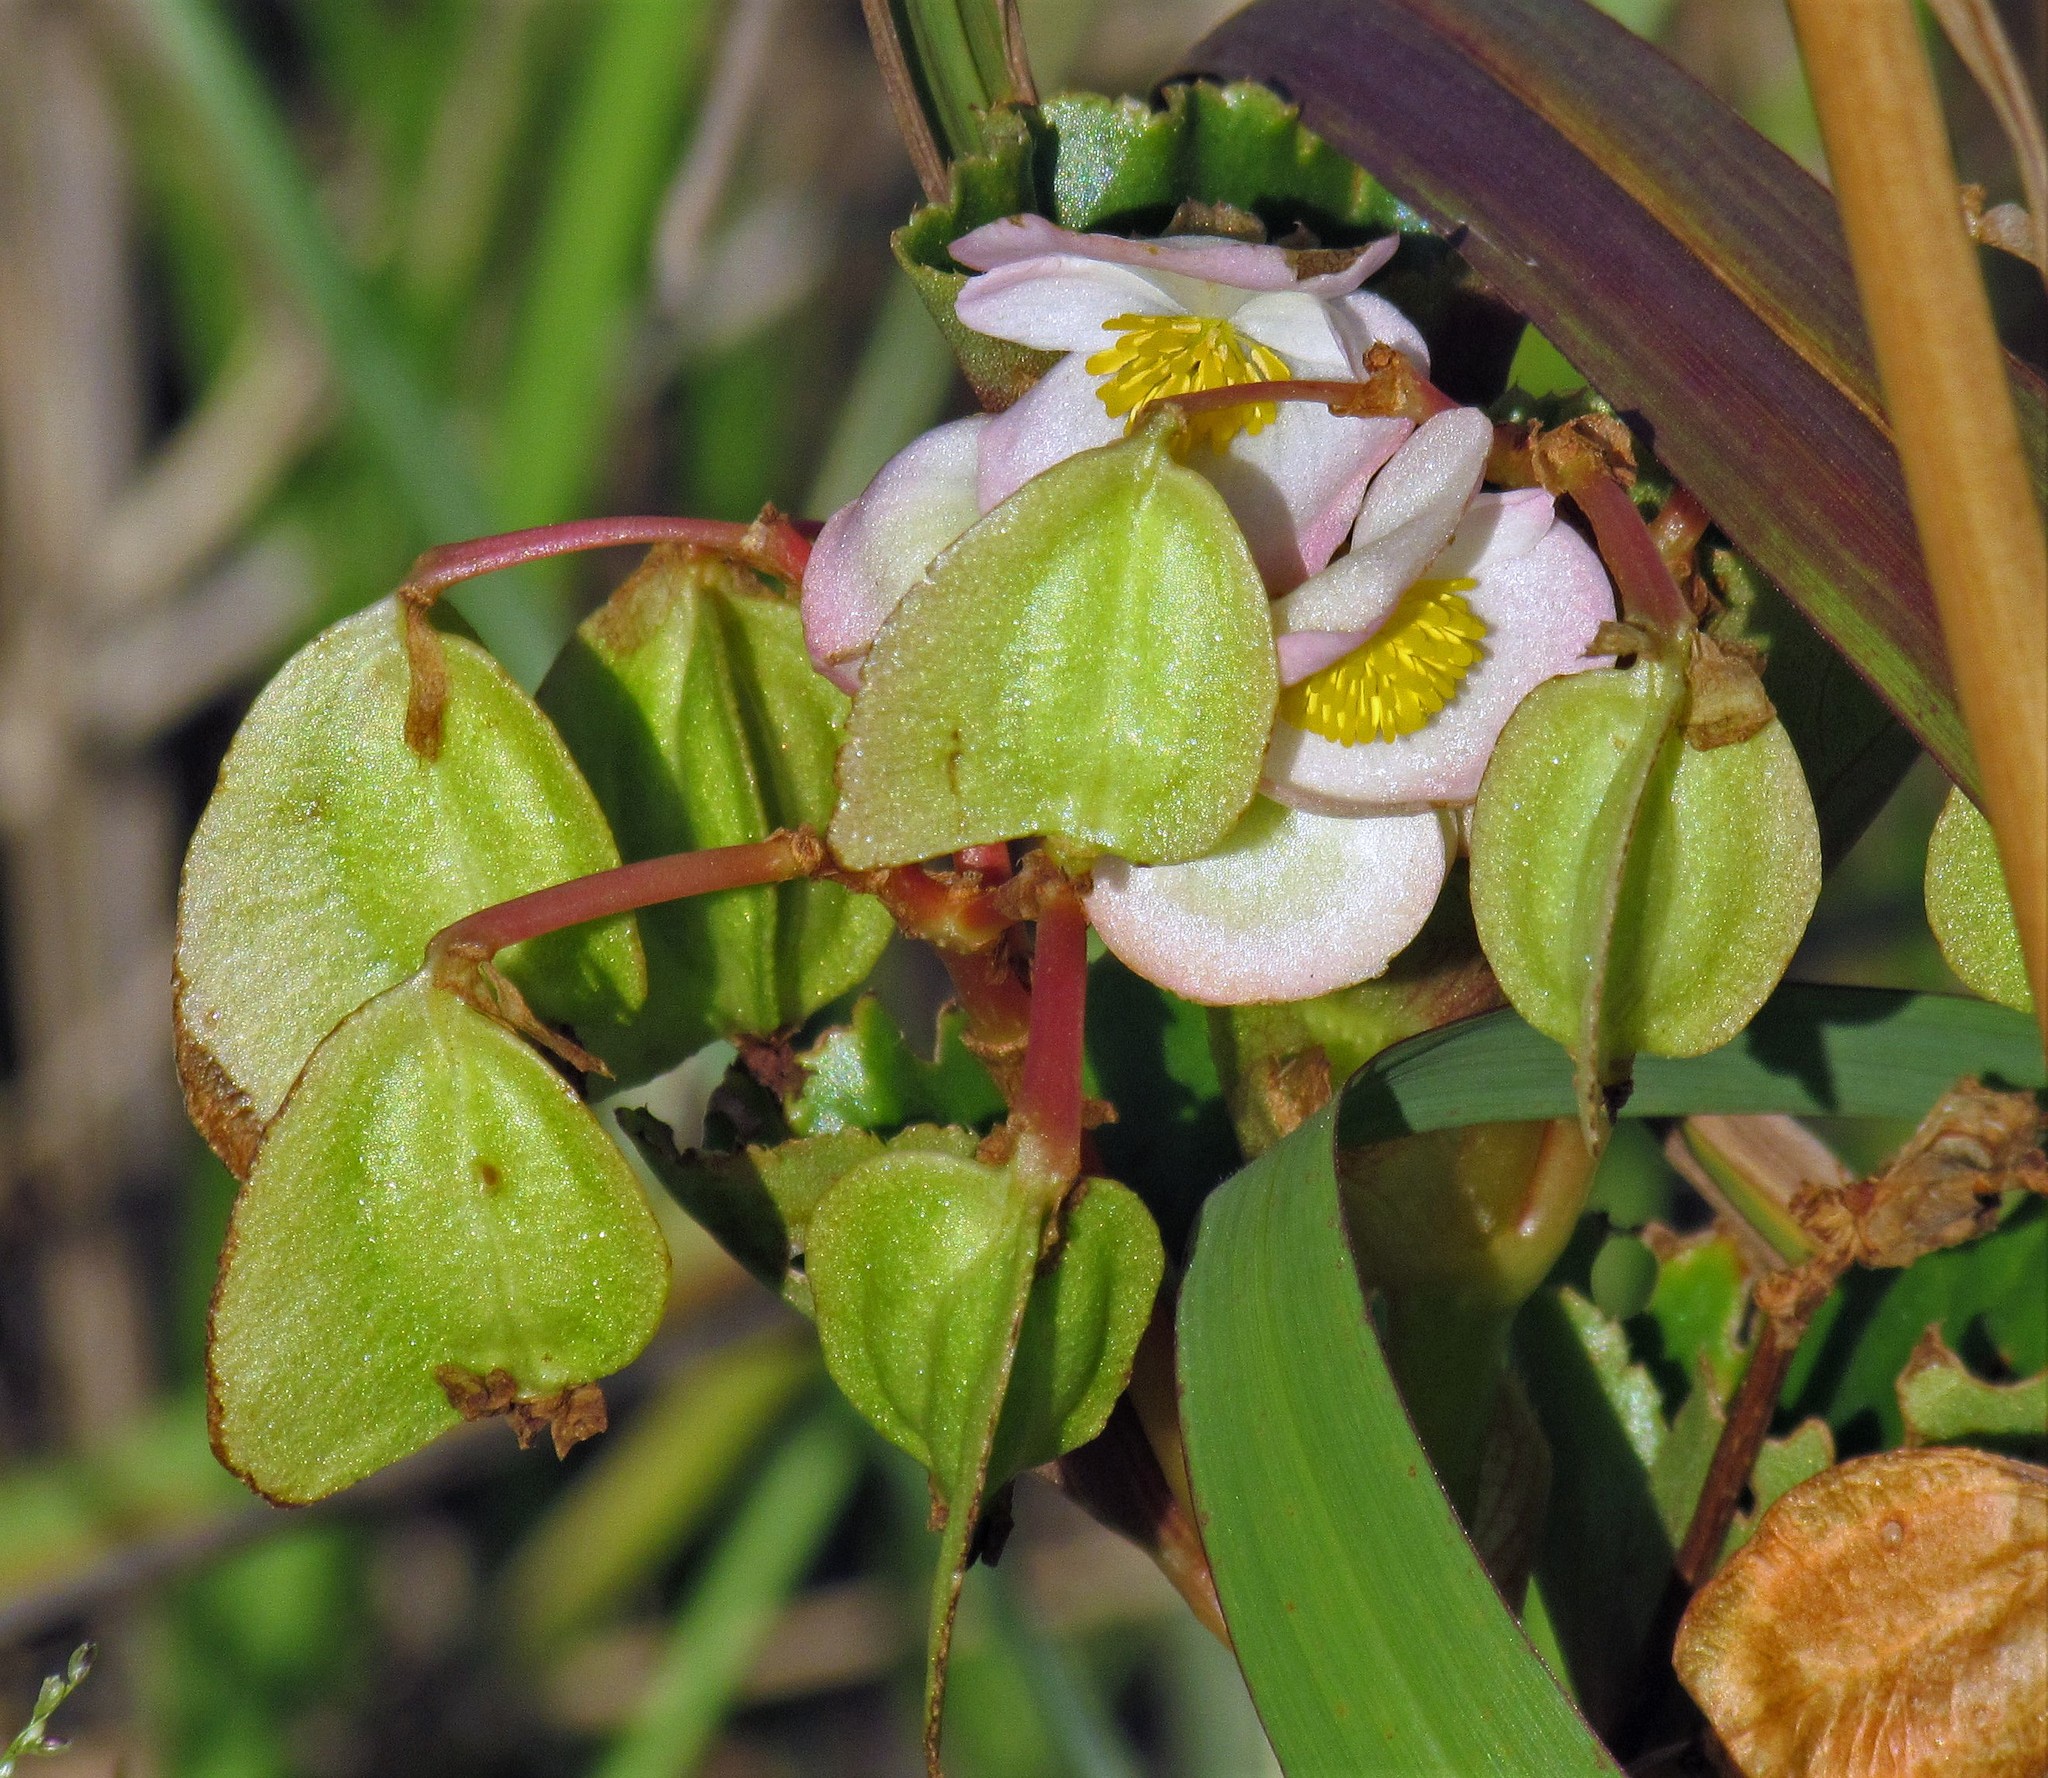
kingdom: Plantae
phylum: Tracheophyta
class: Magnoliopsida
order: Cucurbitales
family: Begoniaceae
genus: Begonia
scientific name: Begonia cucullata
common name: Clubbed begonia
